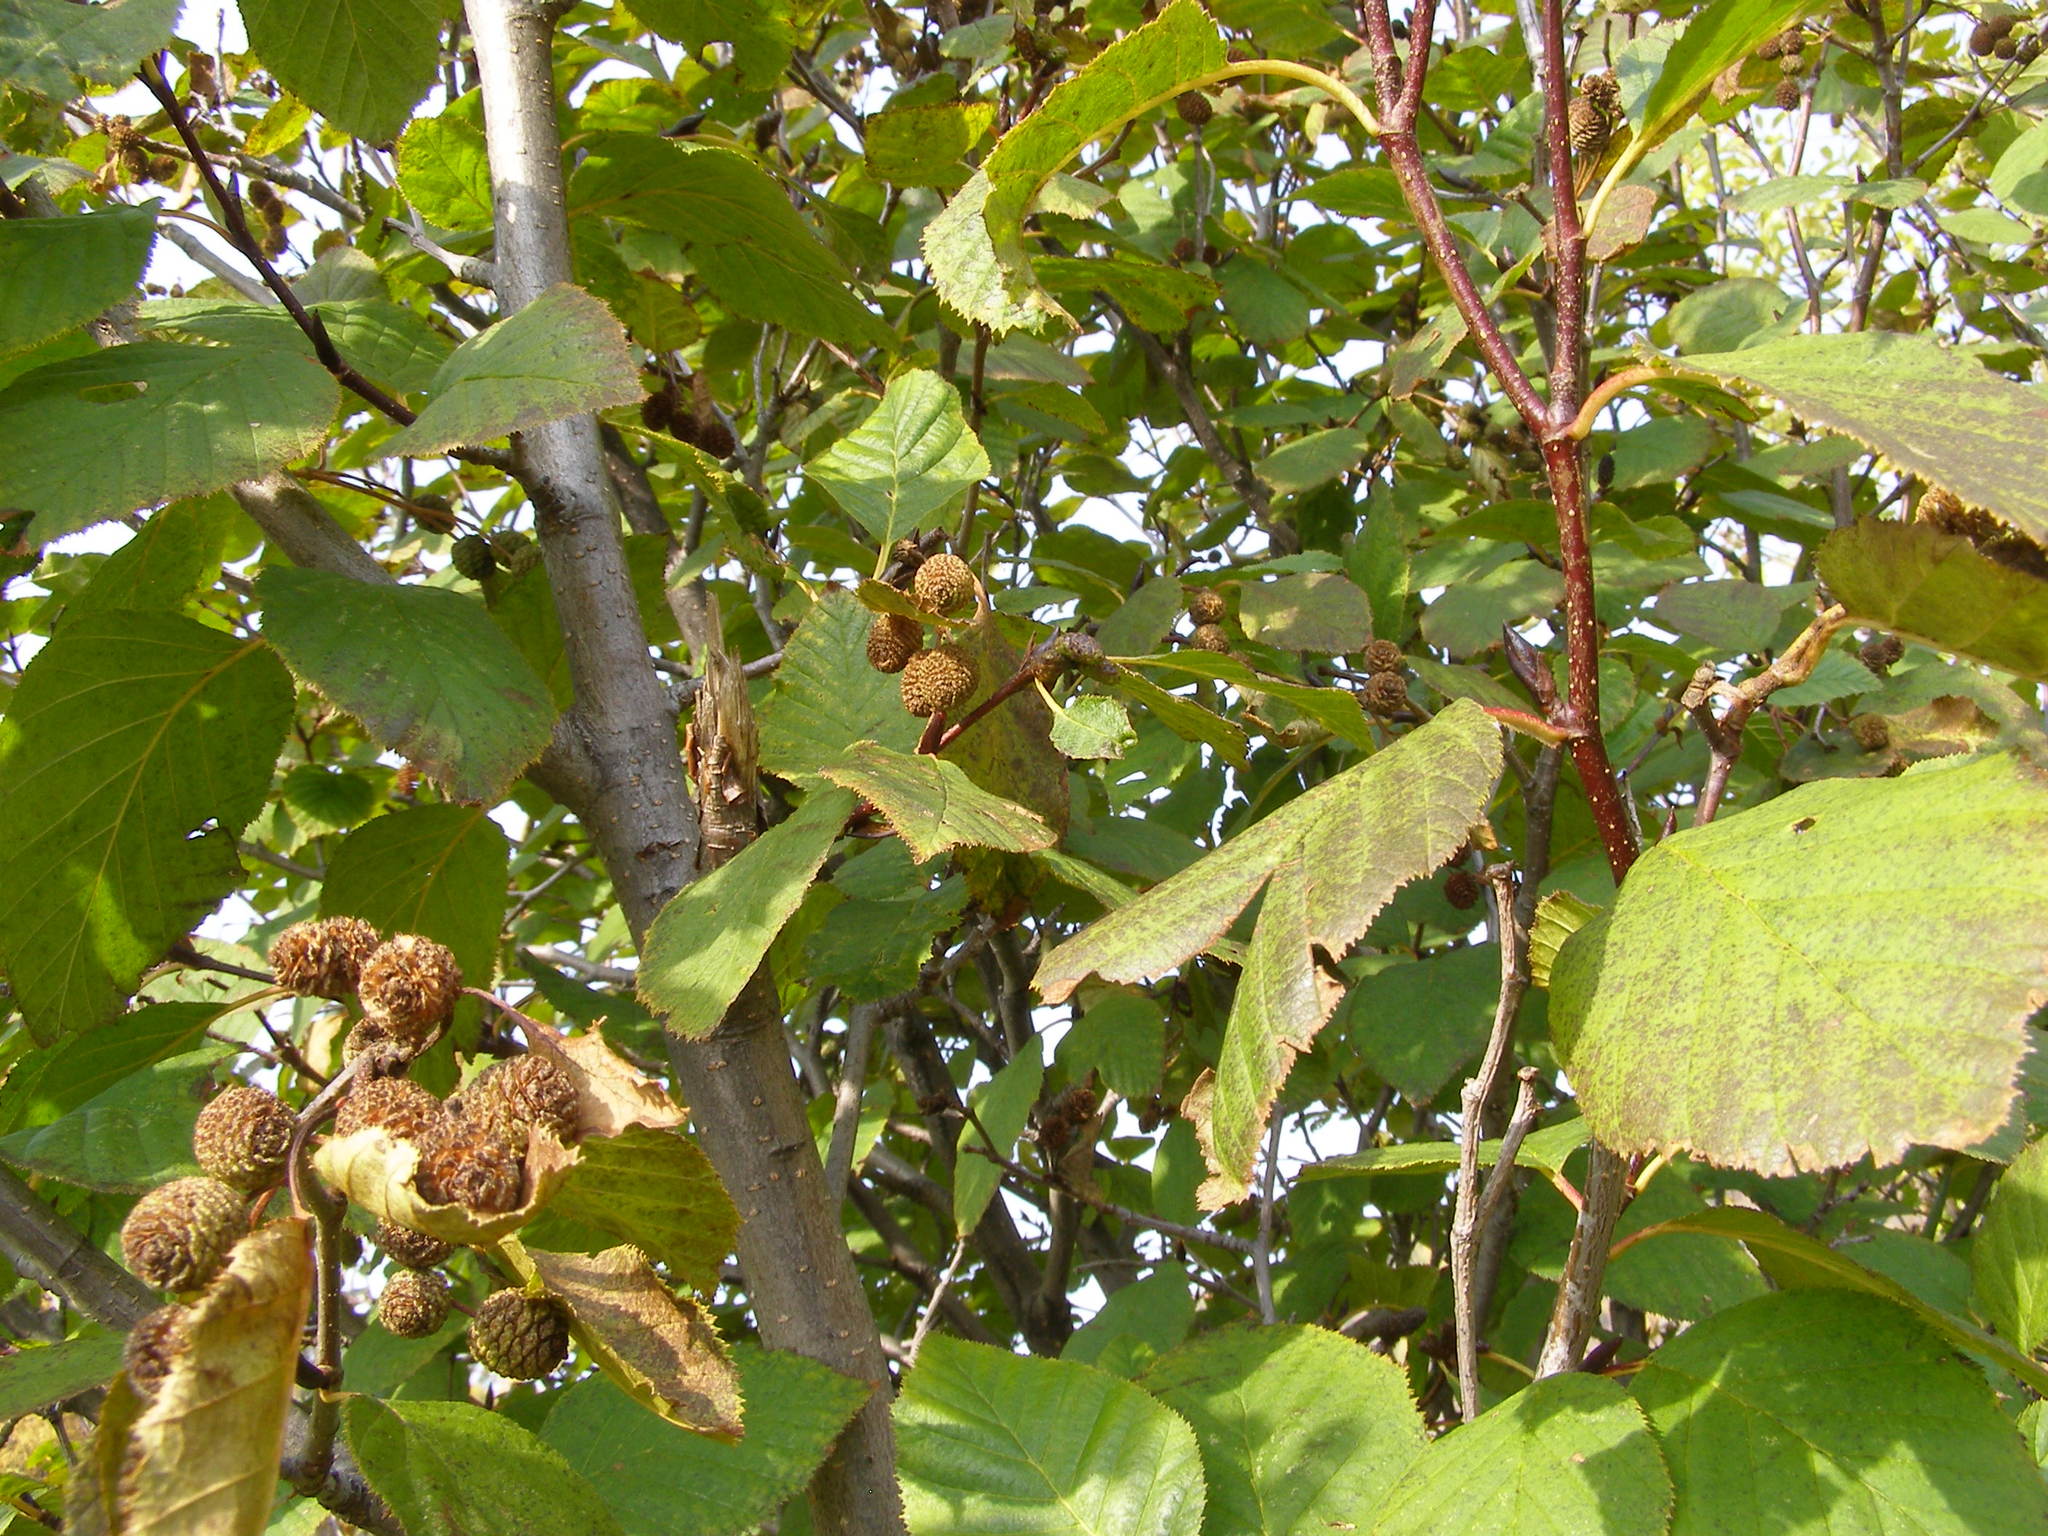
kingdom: Plantae
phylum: Tracheophyta
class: Magnoliopsida
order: Fagales
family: Betulaceae
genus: Alnus
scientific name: Alnus alnobetula
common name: Green alder
